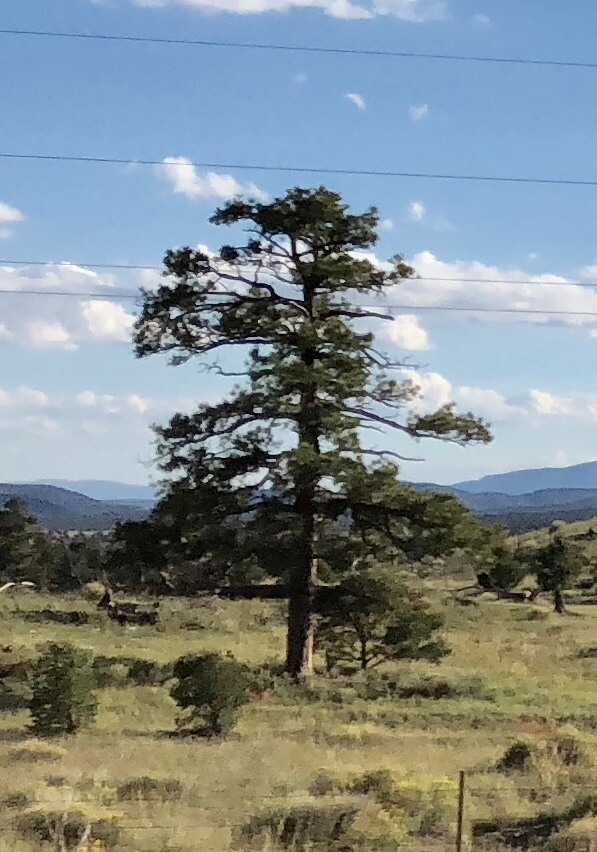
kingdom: Plantae
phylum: Tracheophyta
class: Pinopsida
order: Pinales
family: Pinaceae
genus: Pinus
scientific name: Pinus ponderosa
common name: Western yellow-pine
